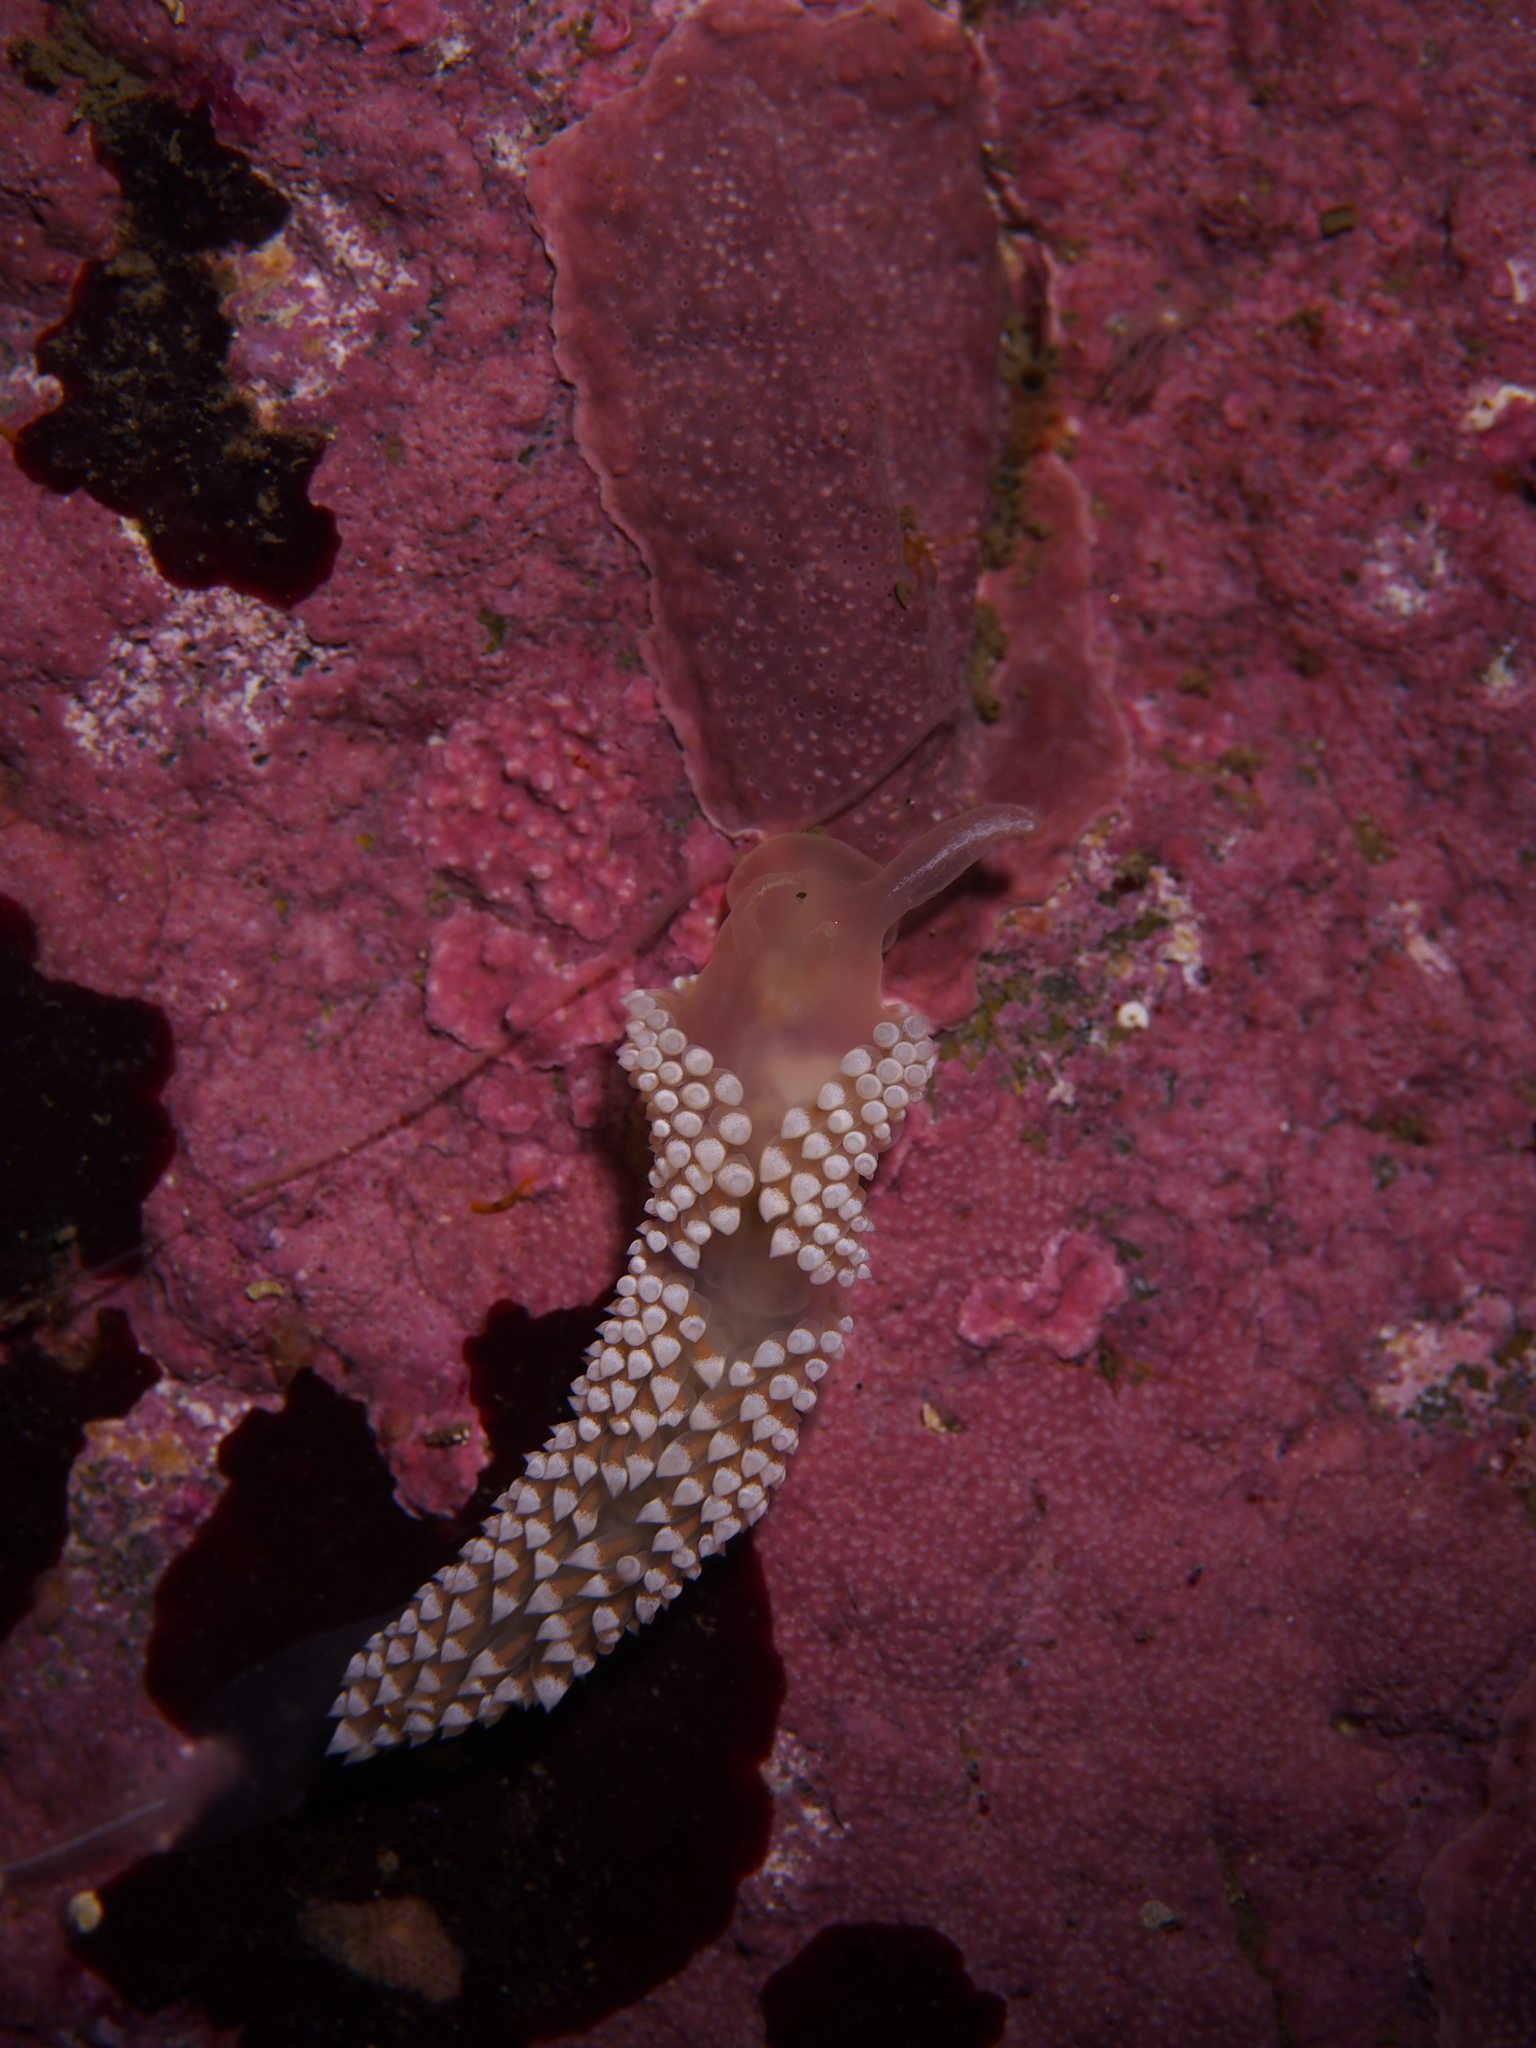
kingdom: Animalia
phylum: Mollusca
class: Gastropoda
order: Nudibranchia
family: Coryphellidae
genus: Coryphella
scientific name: Coryphella verrucosa
